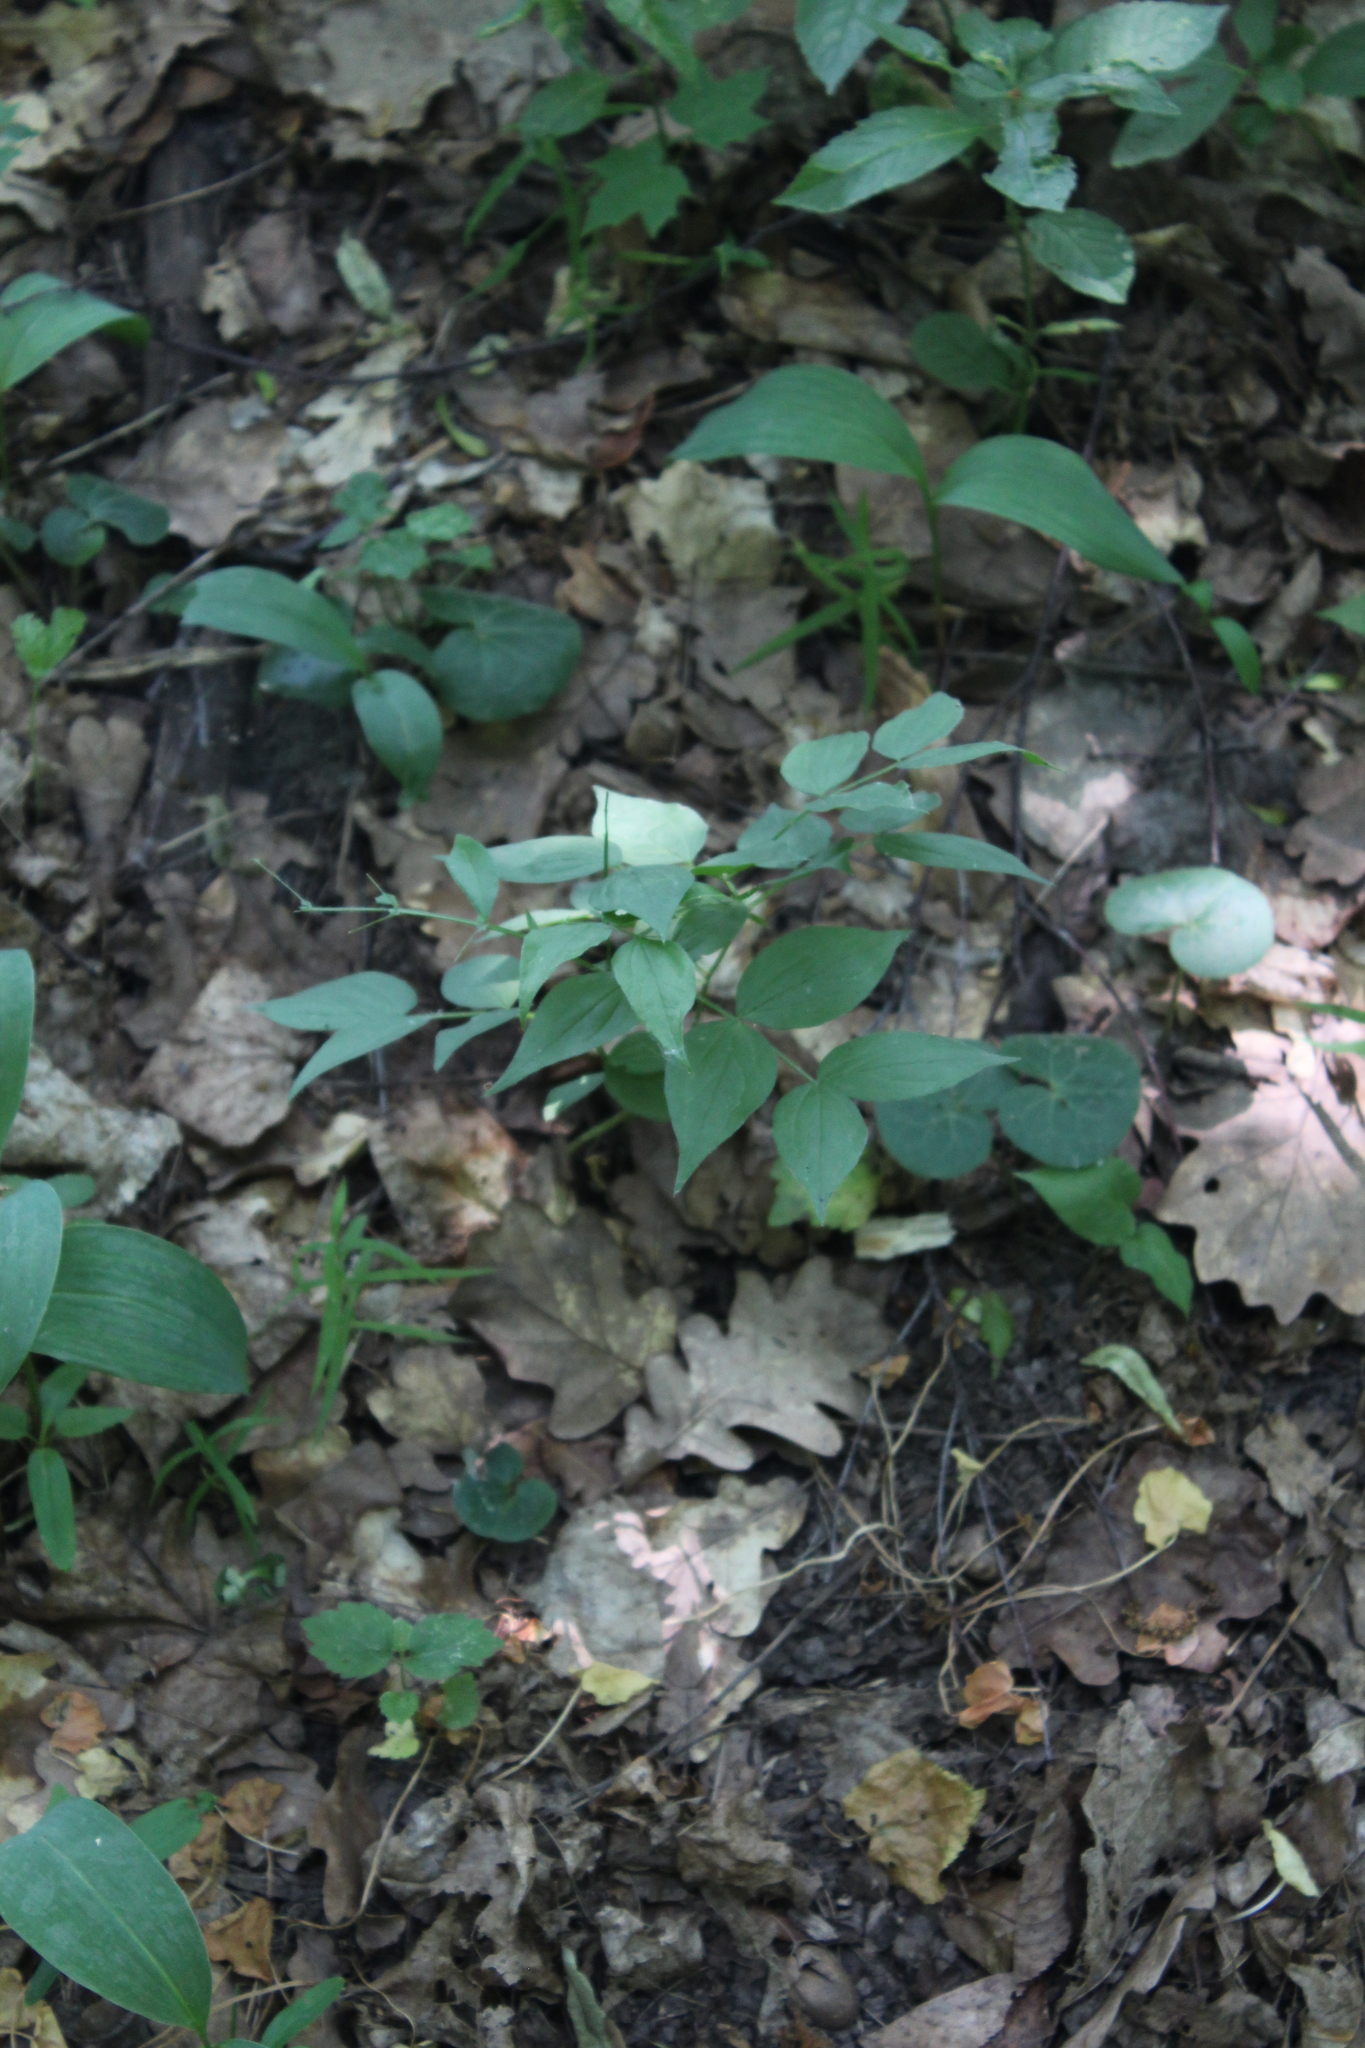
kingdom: Plantae
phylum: Tracheophyta
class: Magnoliopsida
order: Fabales
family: Fabaceae
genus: Lathyrus
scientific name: Lathyrus vernus
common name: Spring pea
